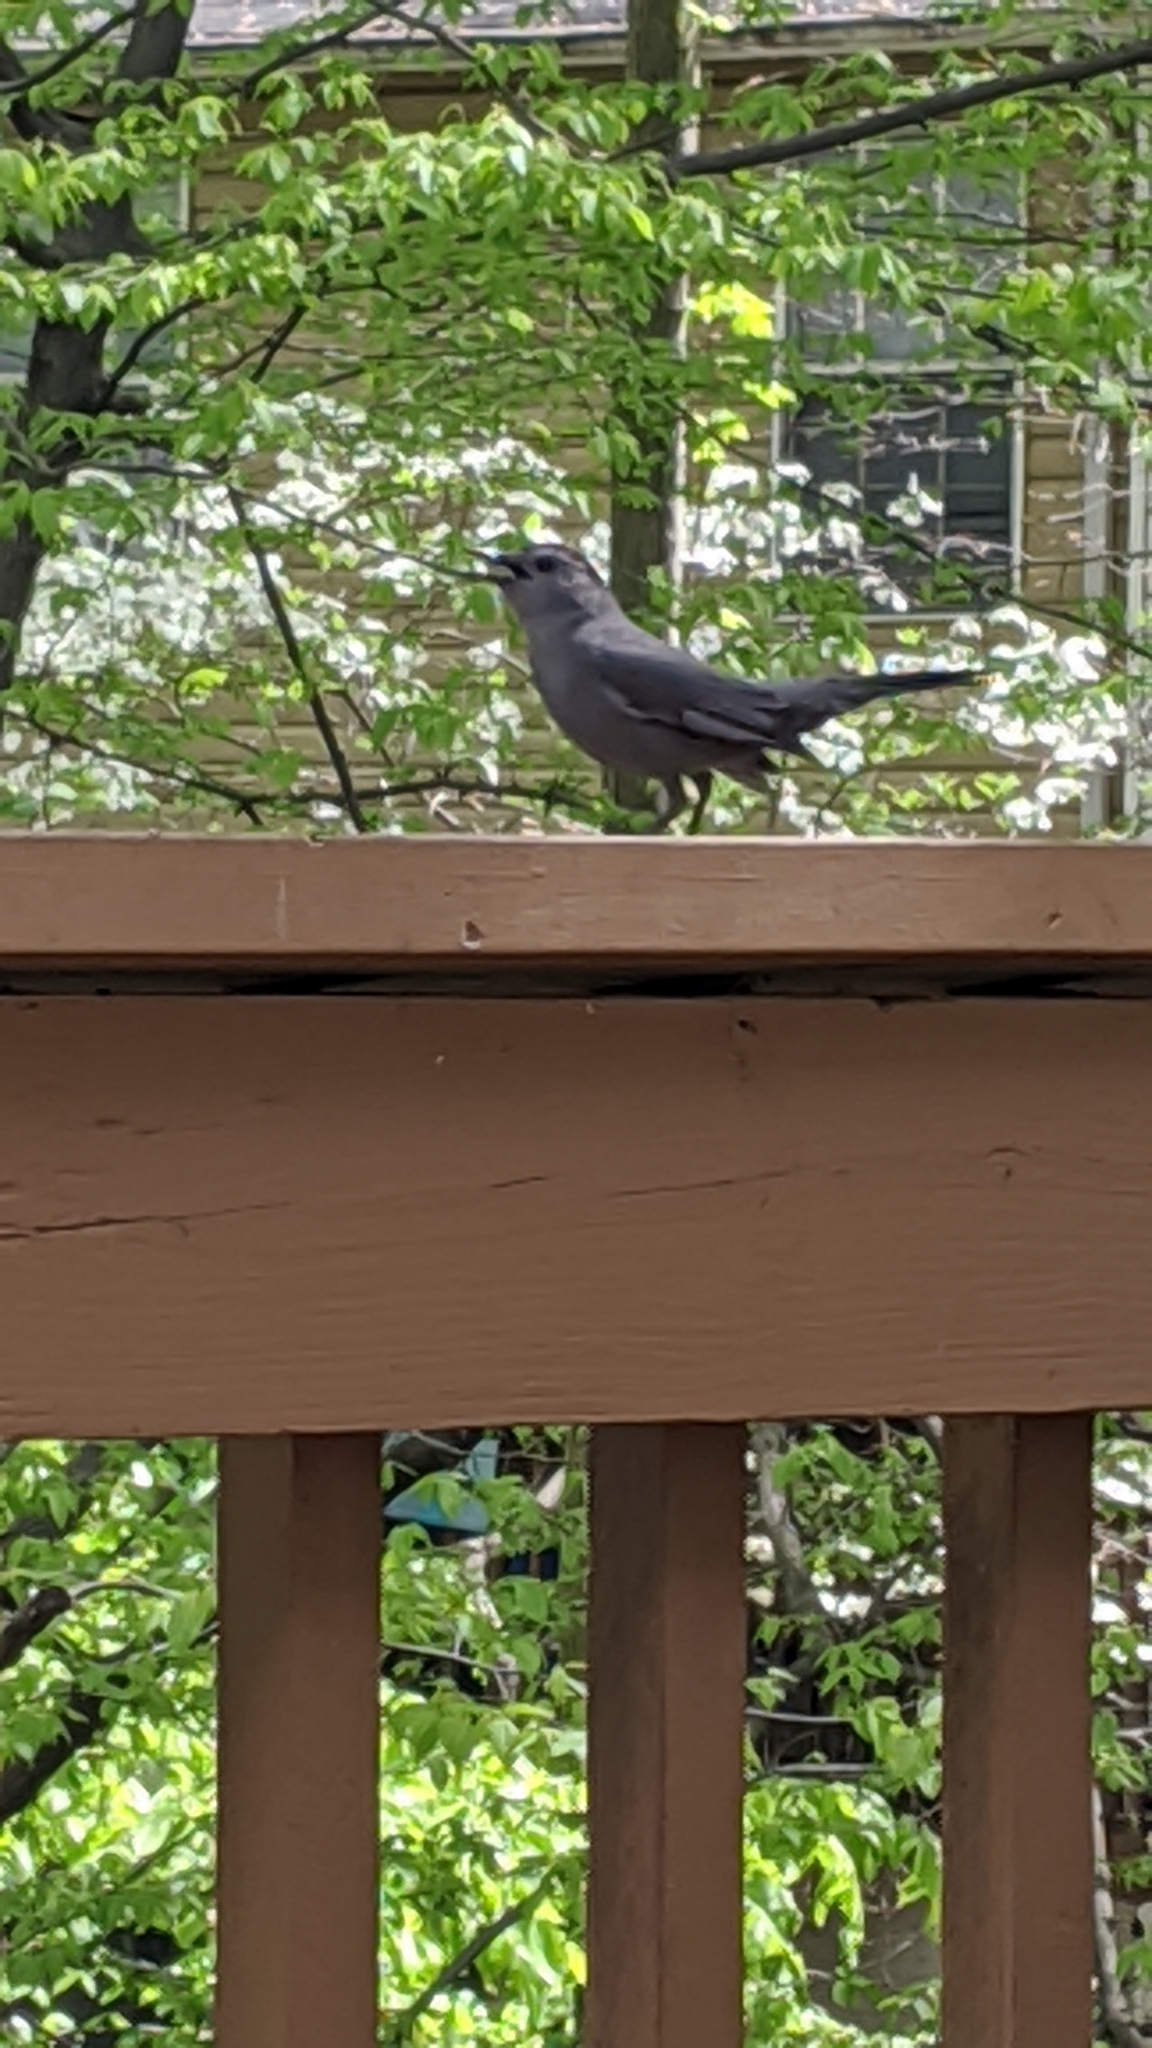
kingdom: Animalia
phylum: Chordata
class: Aves
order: Passeriformes
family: Mimidae
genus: Dumetella
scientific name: Dumetella carolinensis
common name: Gray catbird
